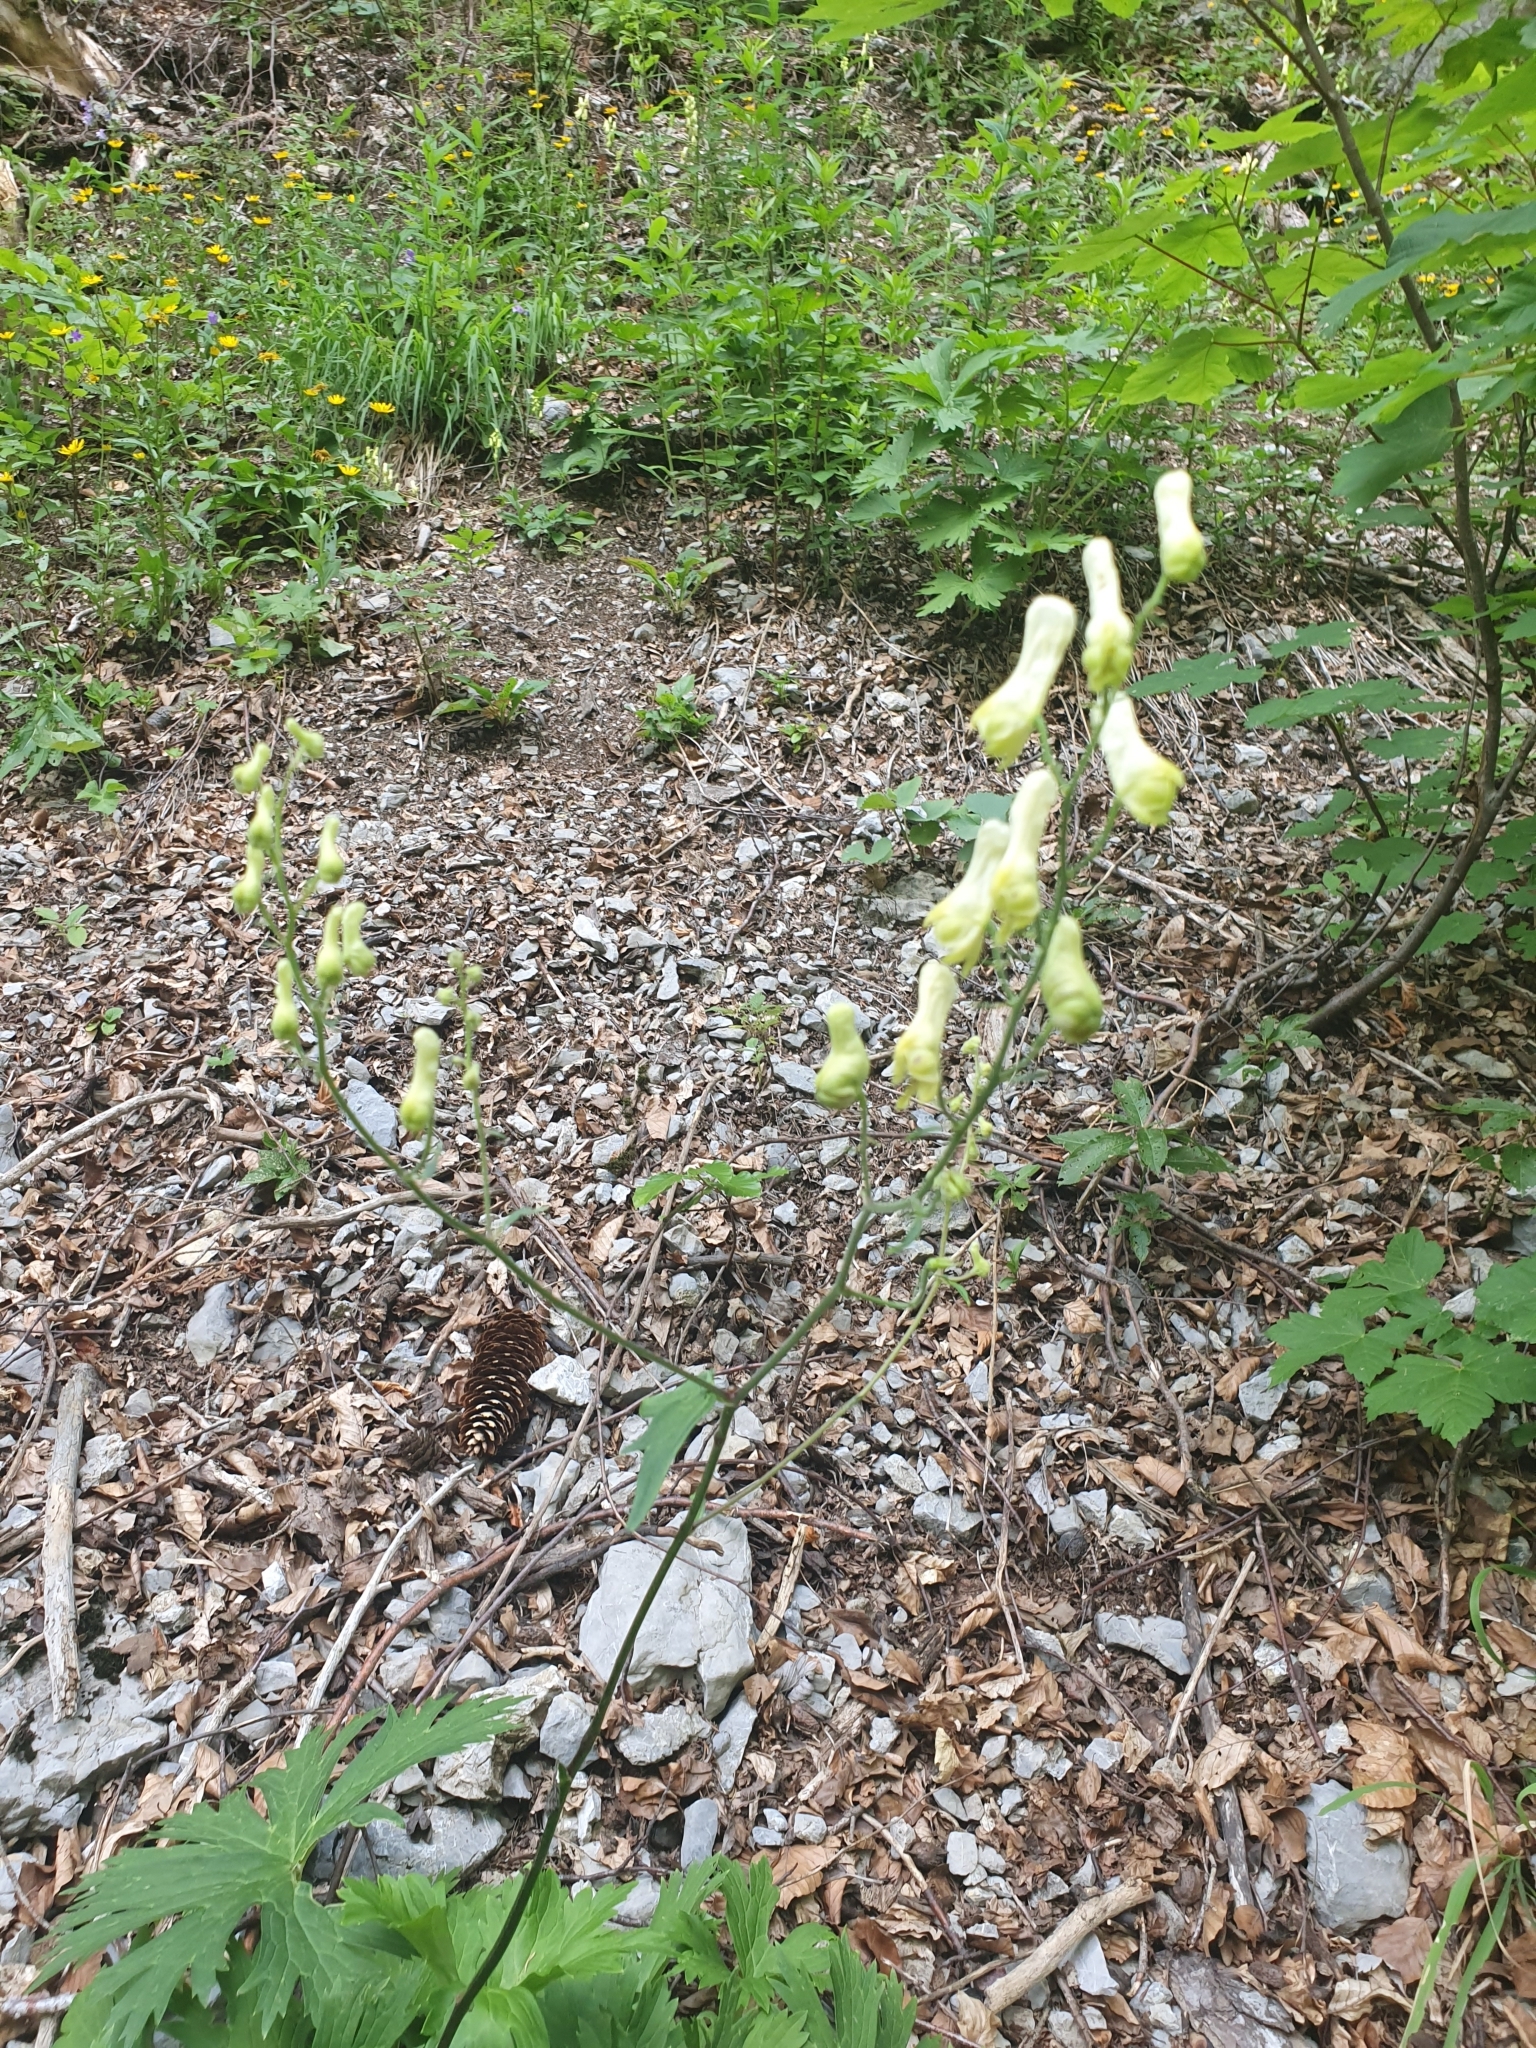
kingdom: Plantae
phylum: Tracheophyta
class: Magnoliopsida
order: Ranunculales
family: Ranunculaceae
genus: Aconitum
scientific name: Aconitum lycoctonum
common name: Wolf's-bane
